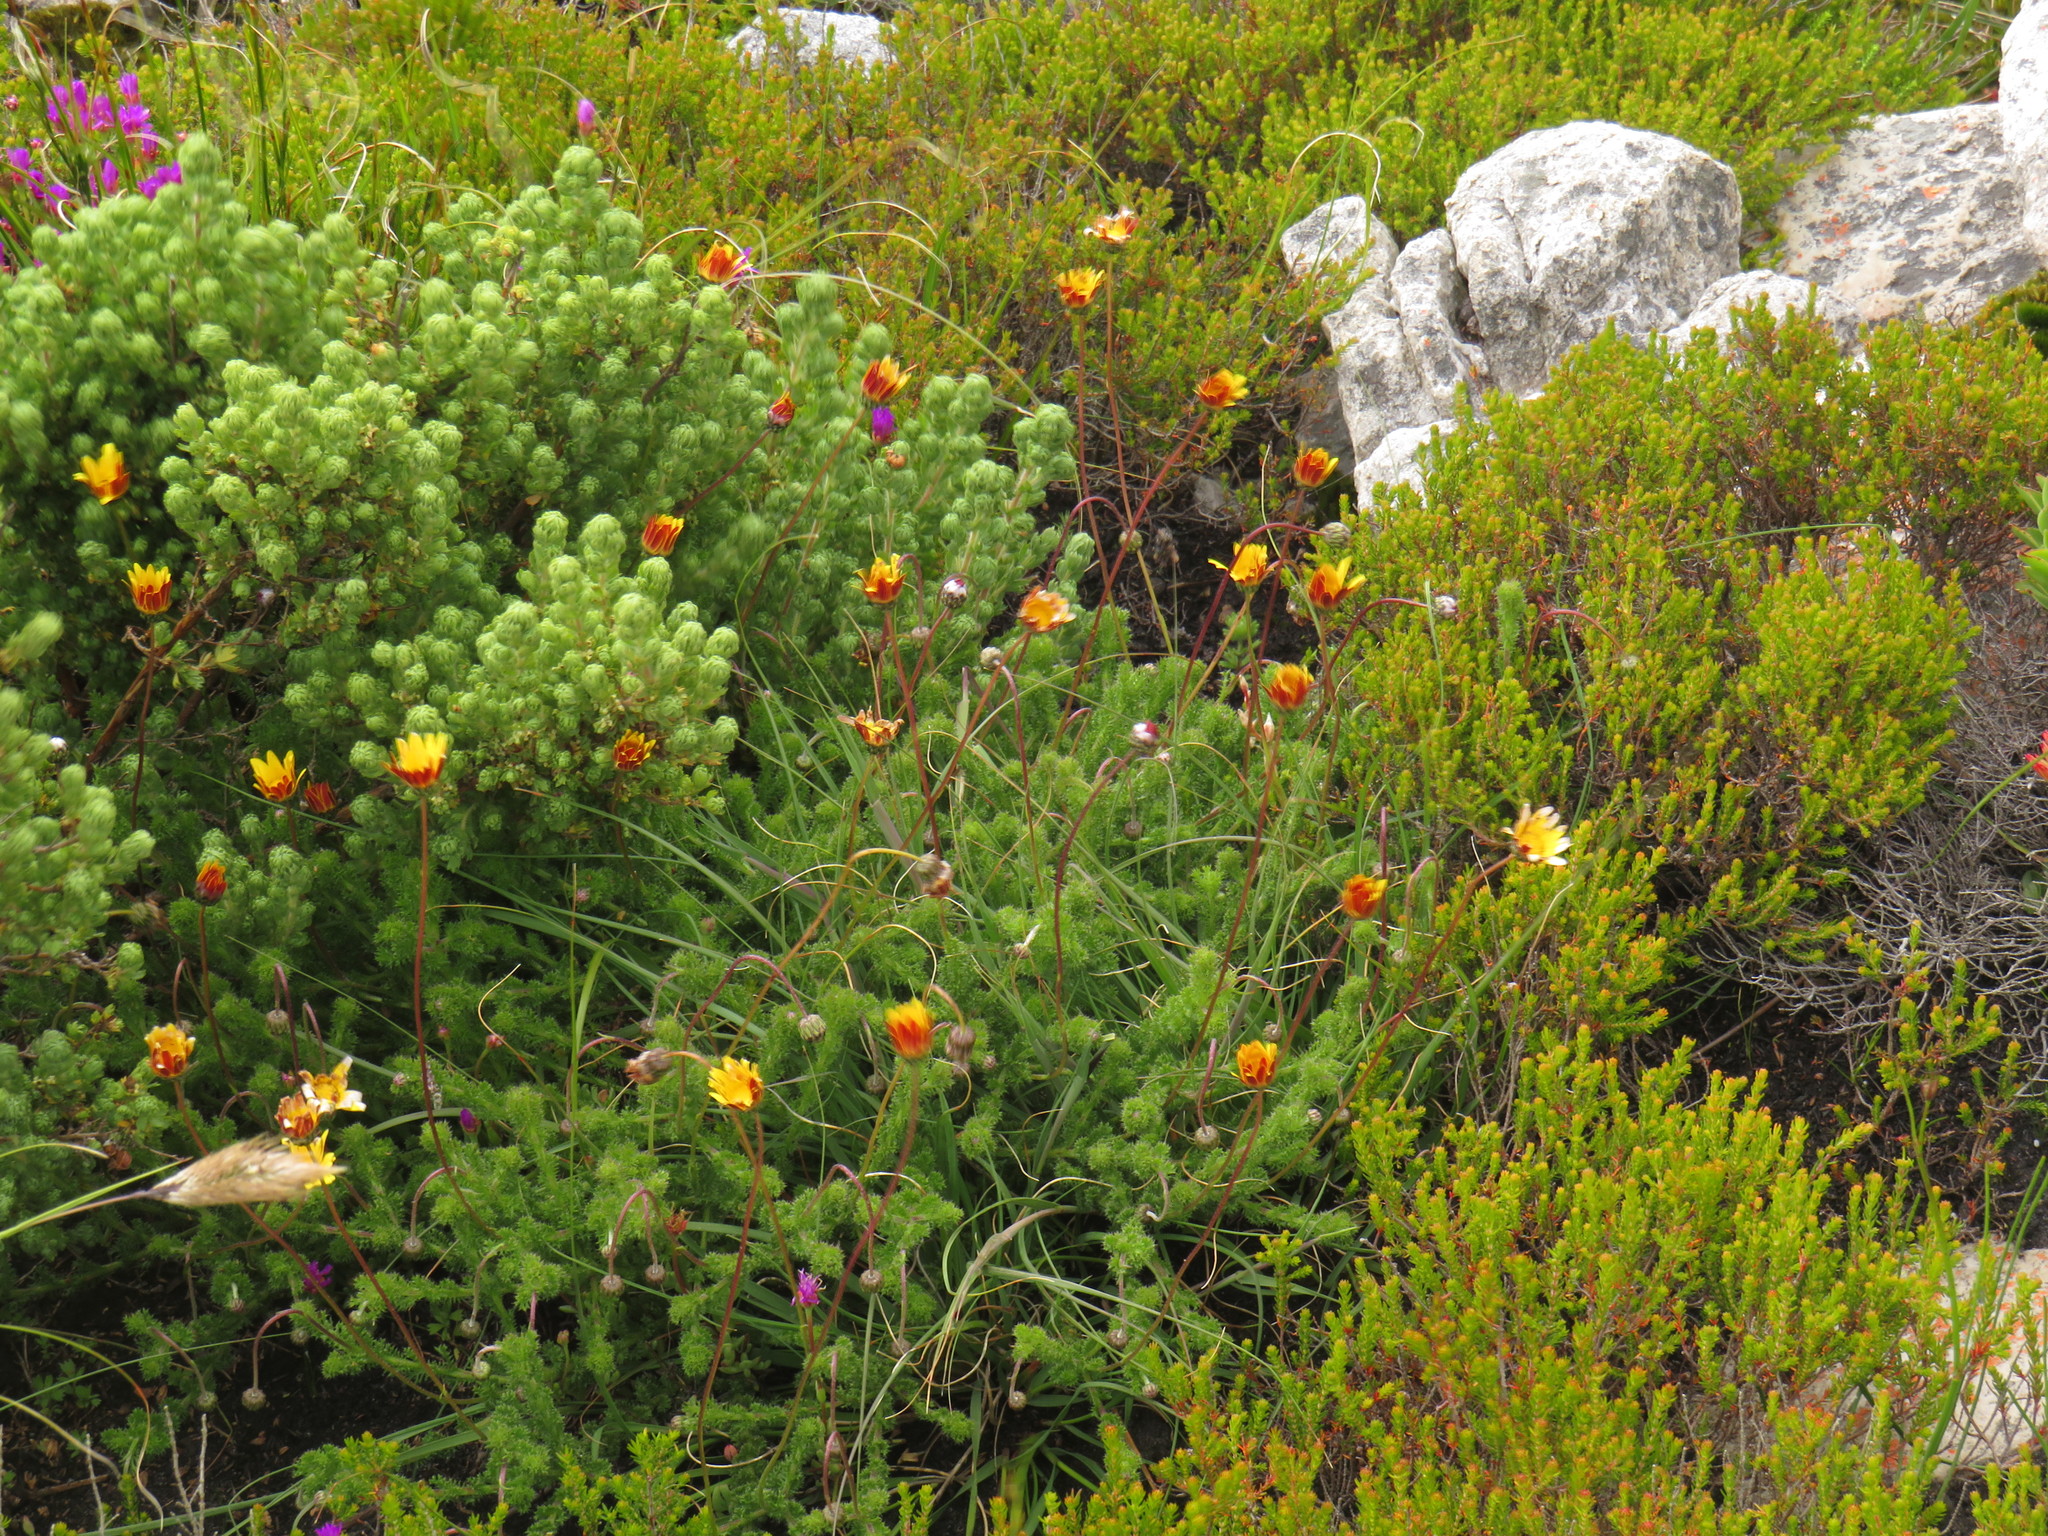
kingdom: Plantae
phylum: Tracheophyta
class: Magnoliopsida
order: Asterales
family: Asteraceae
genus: Ursinia
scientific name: Ursinia dentata
